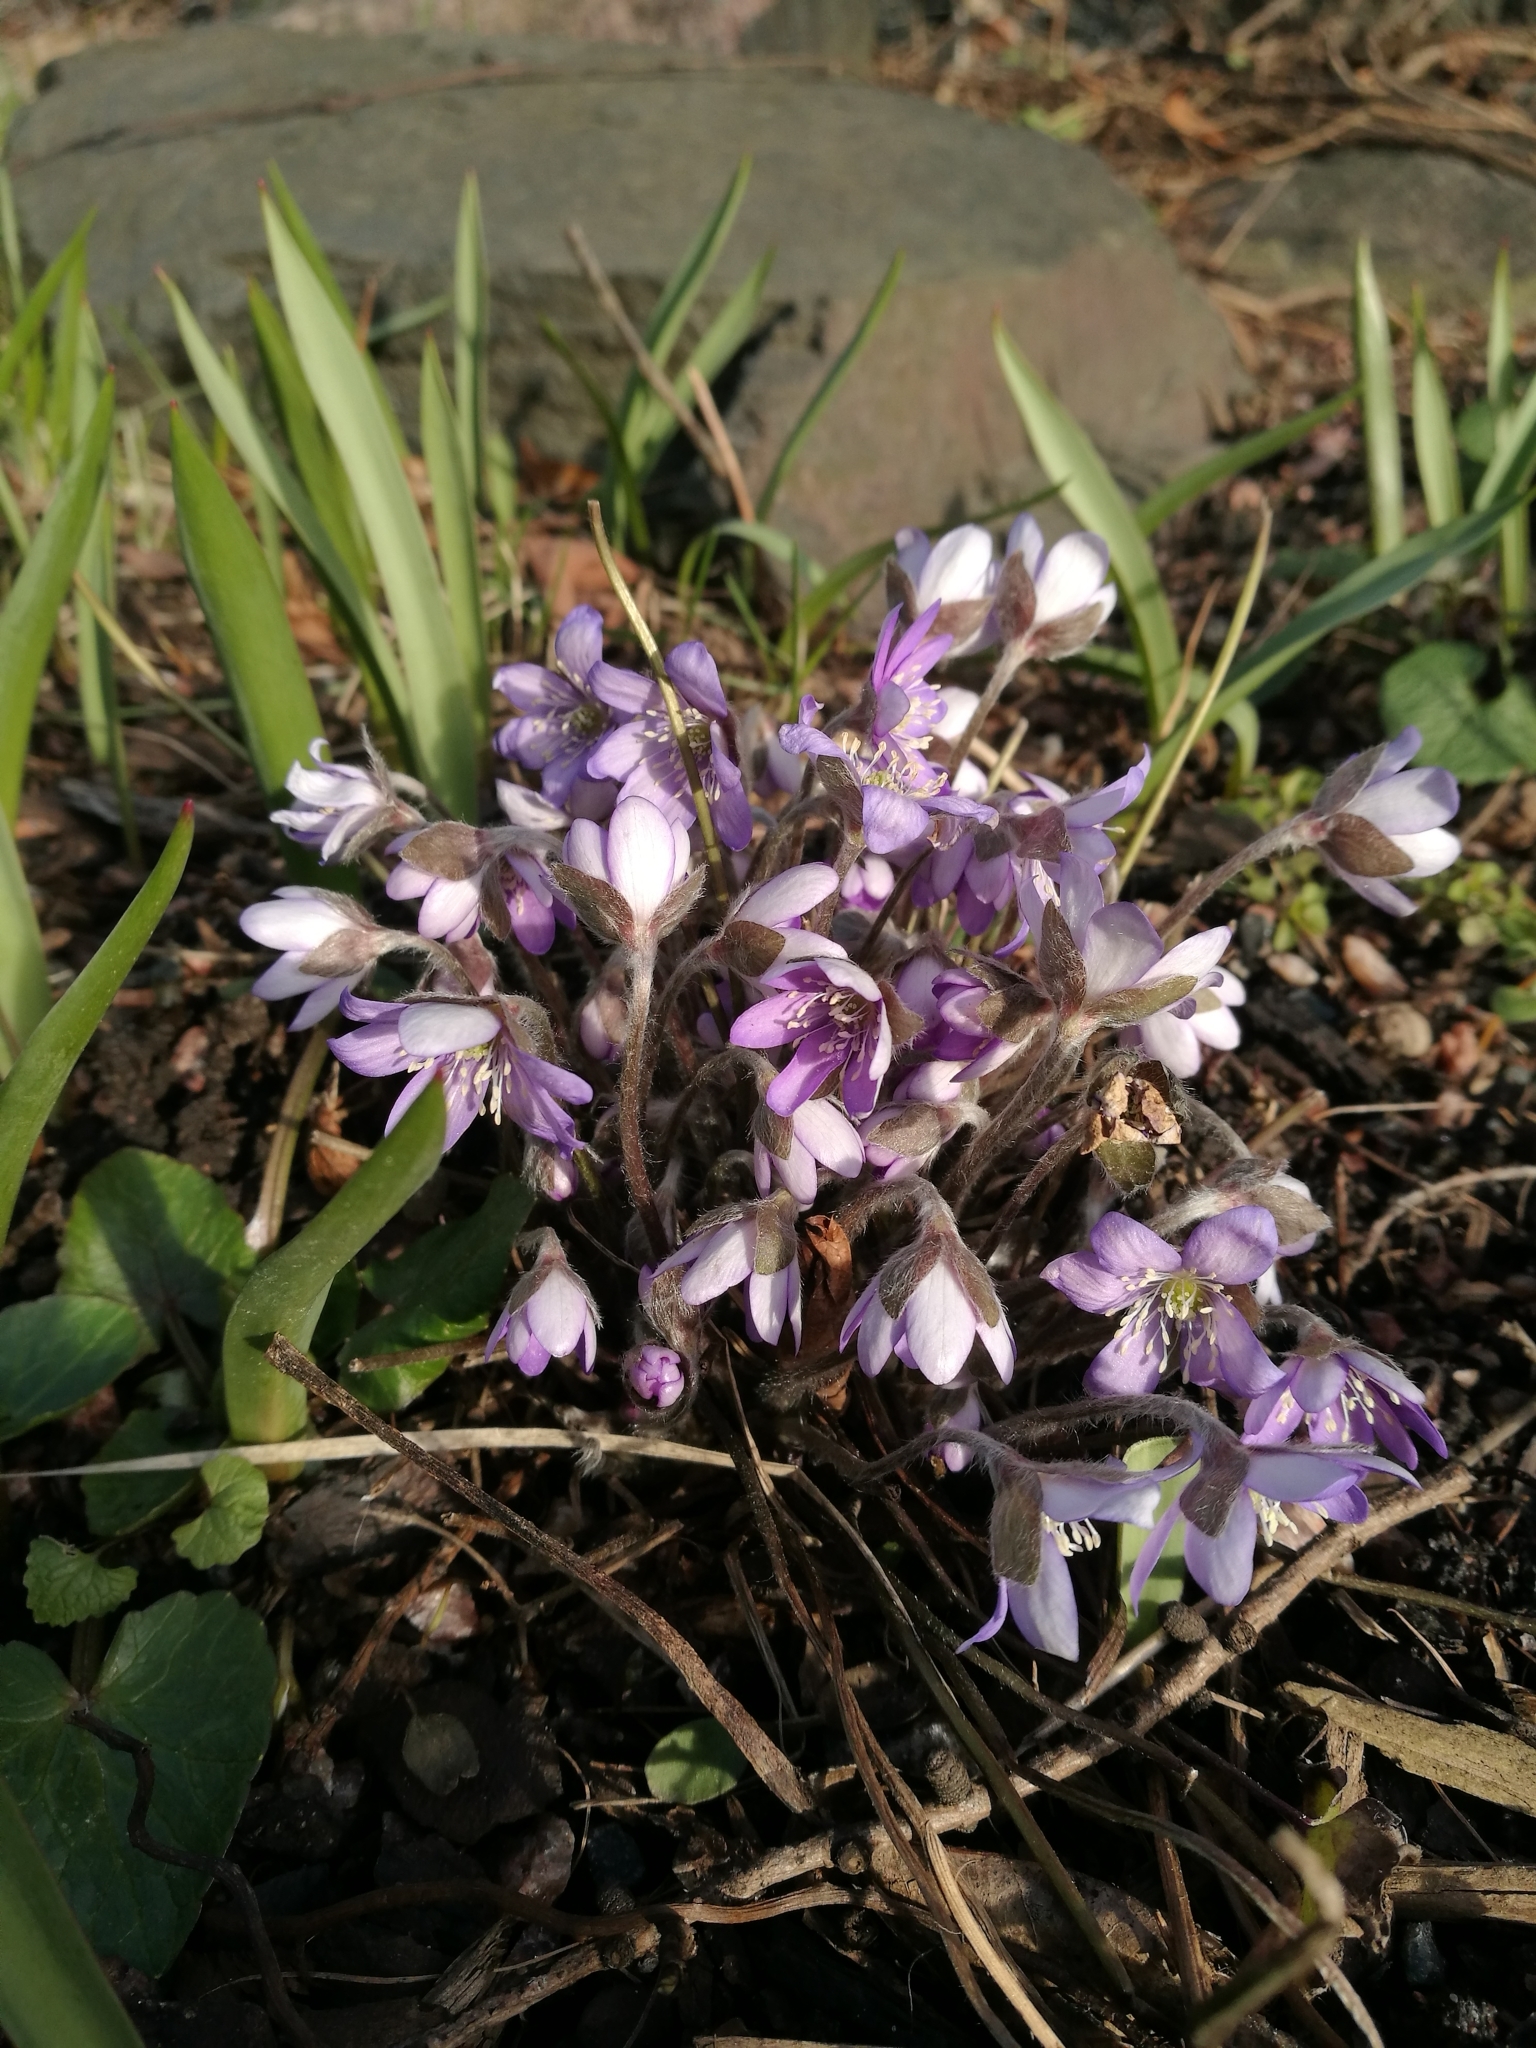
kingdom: Plantae
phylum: Tracheophyta
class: Magnoliopsida
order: Ranunculales
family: Ranunculaceae
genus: Hepatica
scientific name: Hepatica nobilis
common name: Liverleaf
